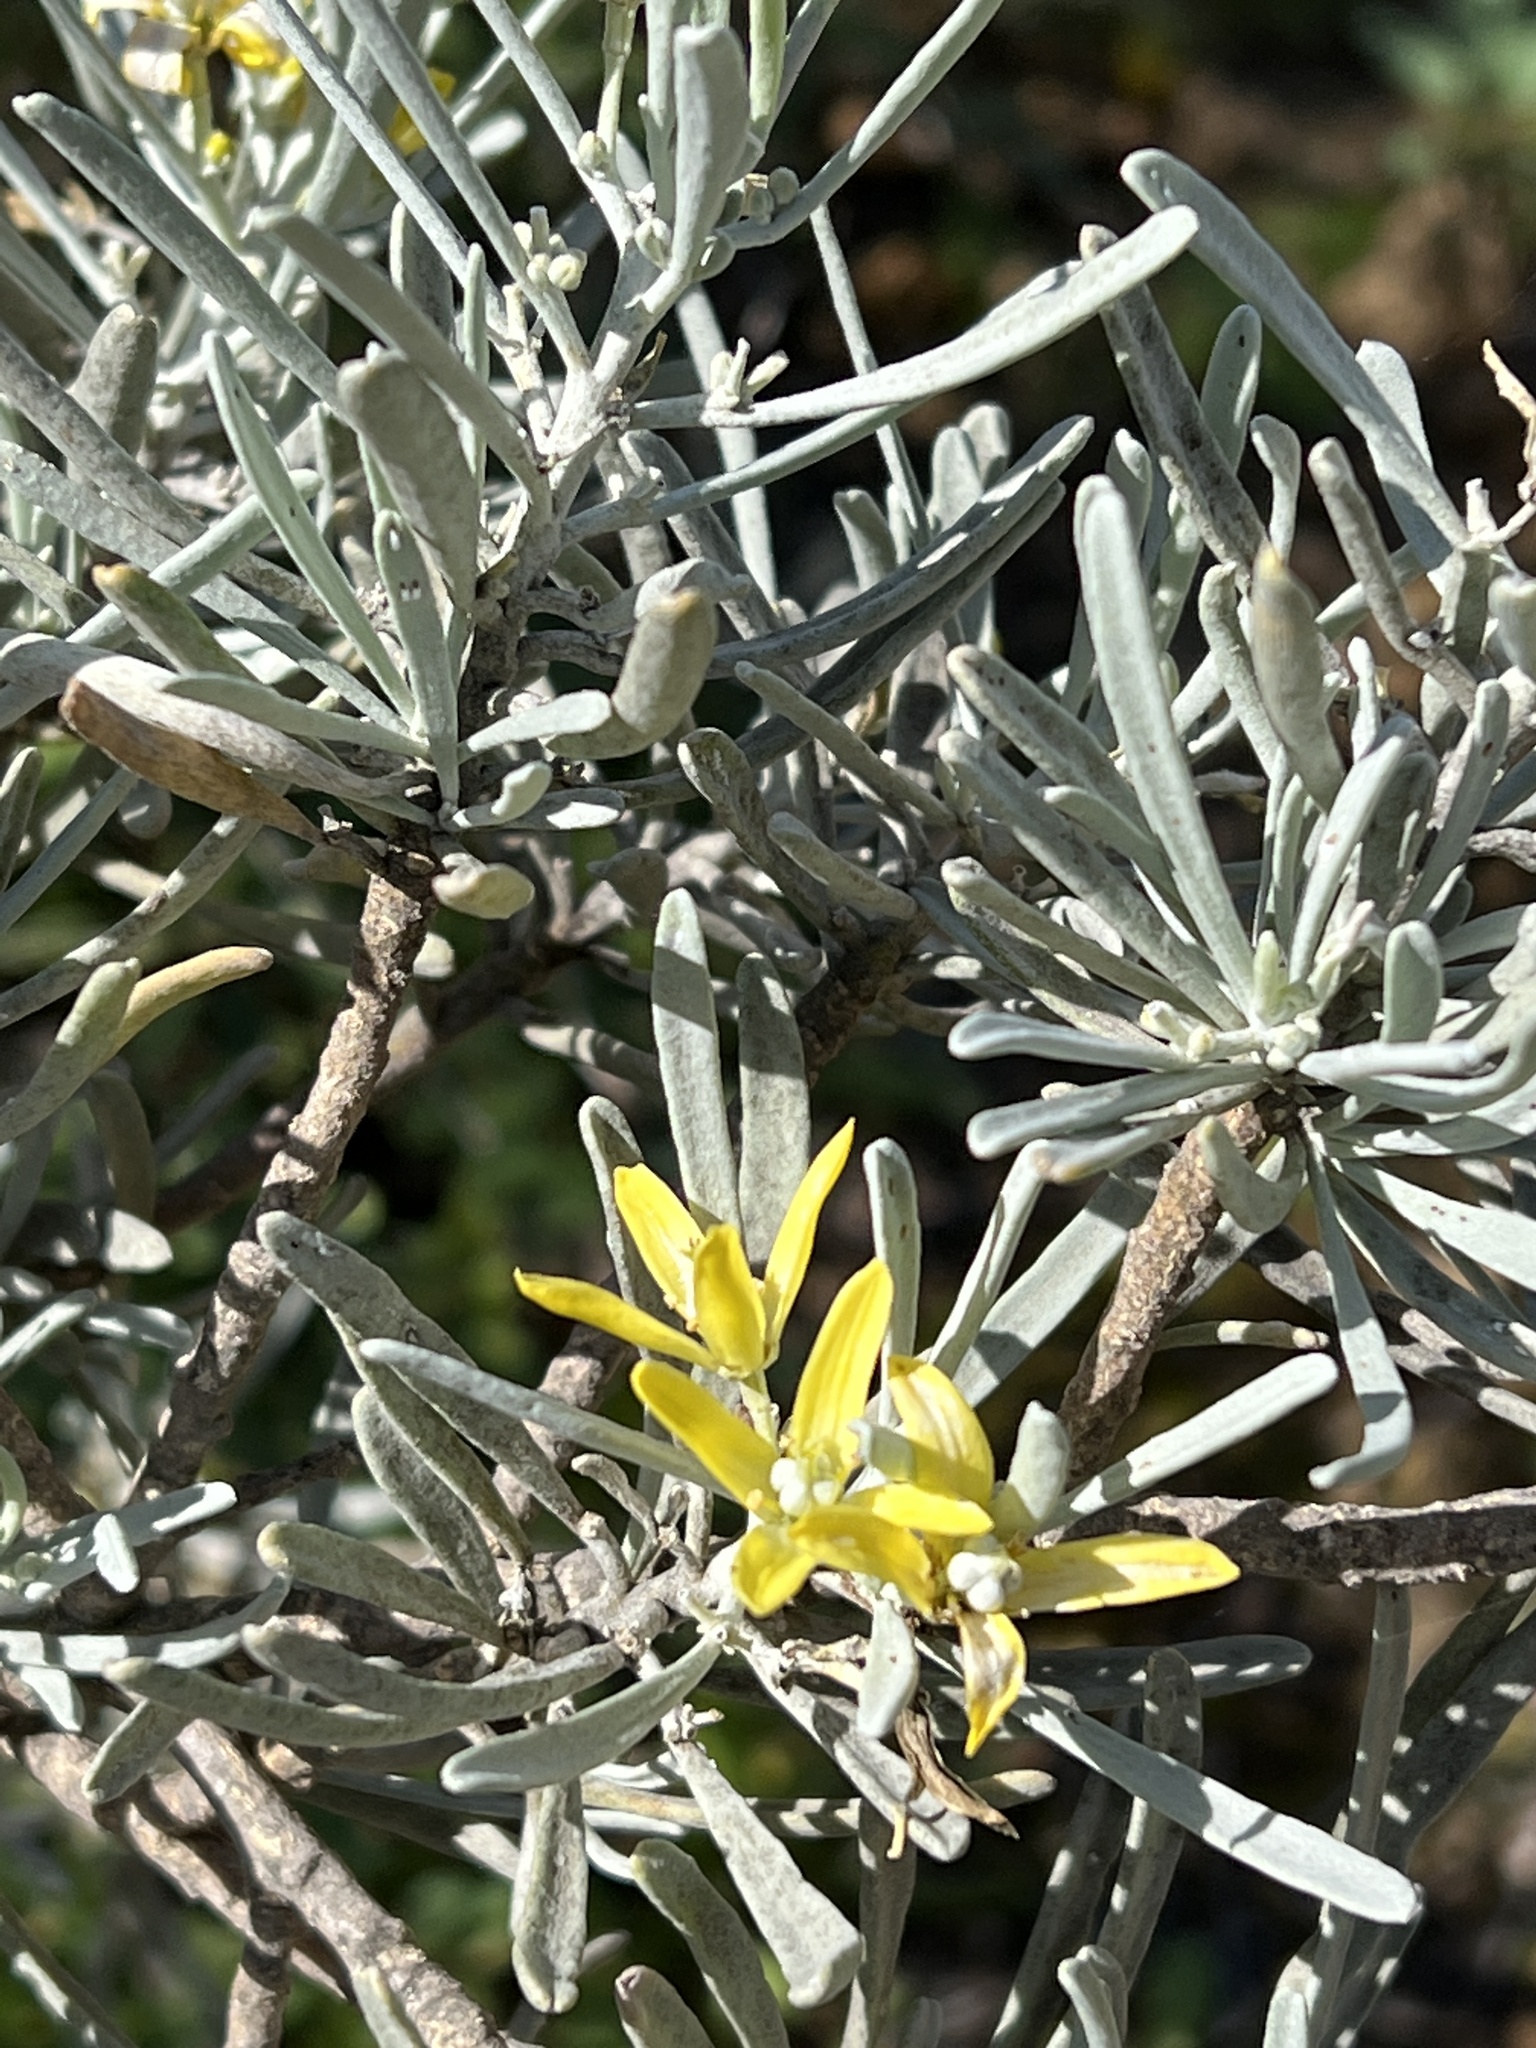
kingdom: Plantae
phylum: Tracheophyta
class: Magnoliopsida
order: Sapindales
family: Rutaceae
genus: Cneorum
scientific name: Cneorum pulverulentum
